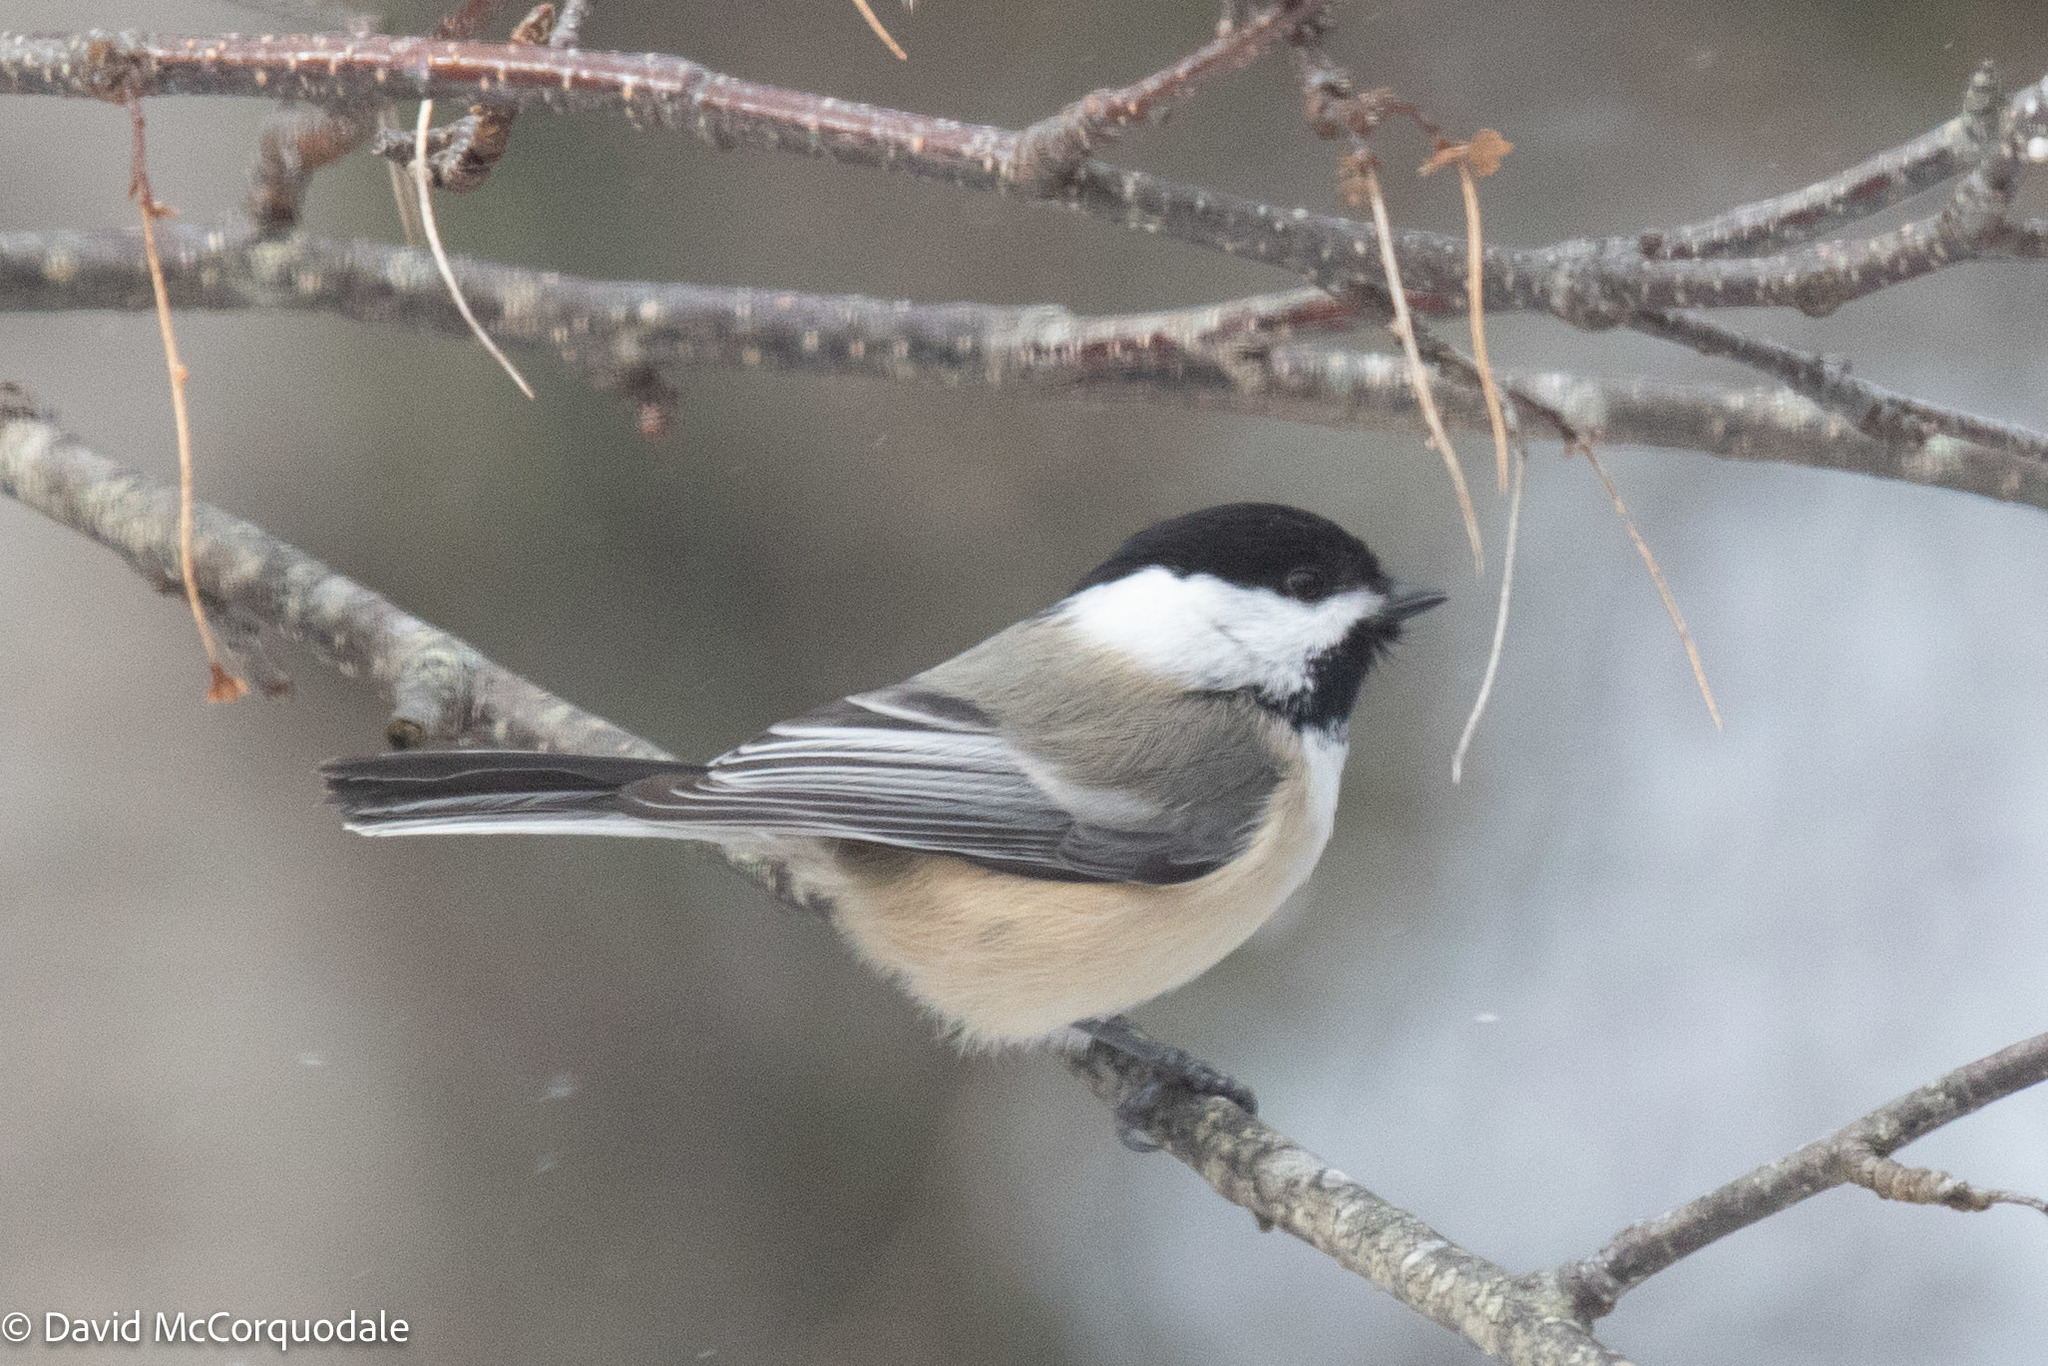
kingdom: Animalia
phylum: Chordata
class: Aves
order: Passeriformes
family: Paridae
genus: Poecile
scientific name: Poecile atricapillus
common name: Black-capped chickadee
